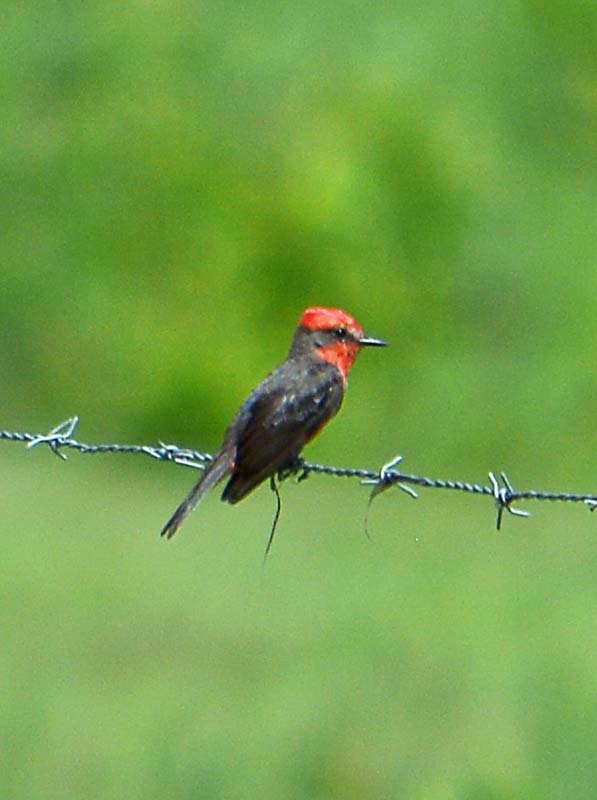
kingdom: Animalia
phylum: Chordata
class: Aves
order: Passeriformes
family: Tyrannidae
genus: Pyrocephalus
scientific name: Pyrocephalus rubinus
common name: Vermilion flycatcher
